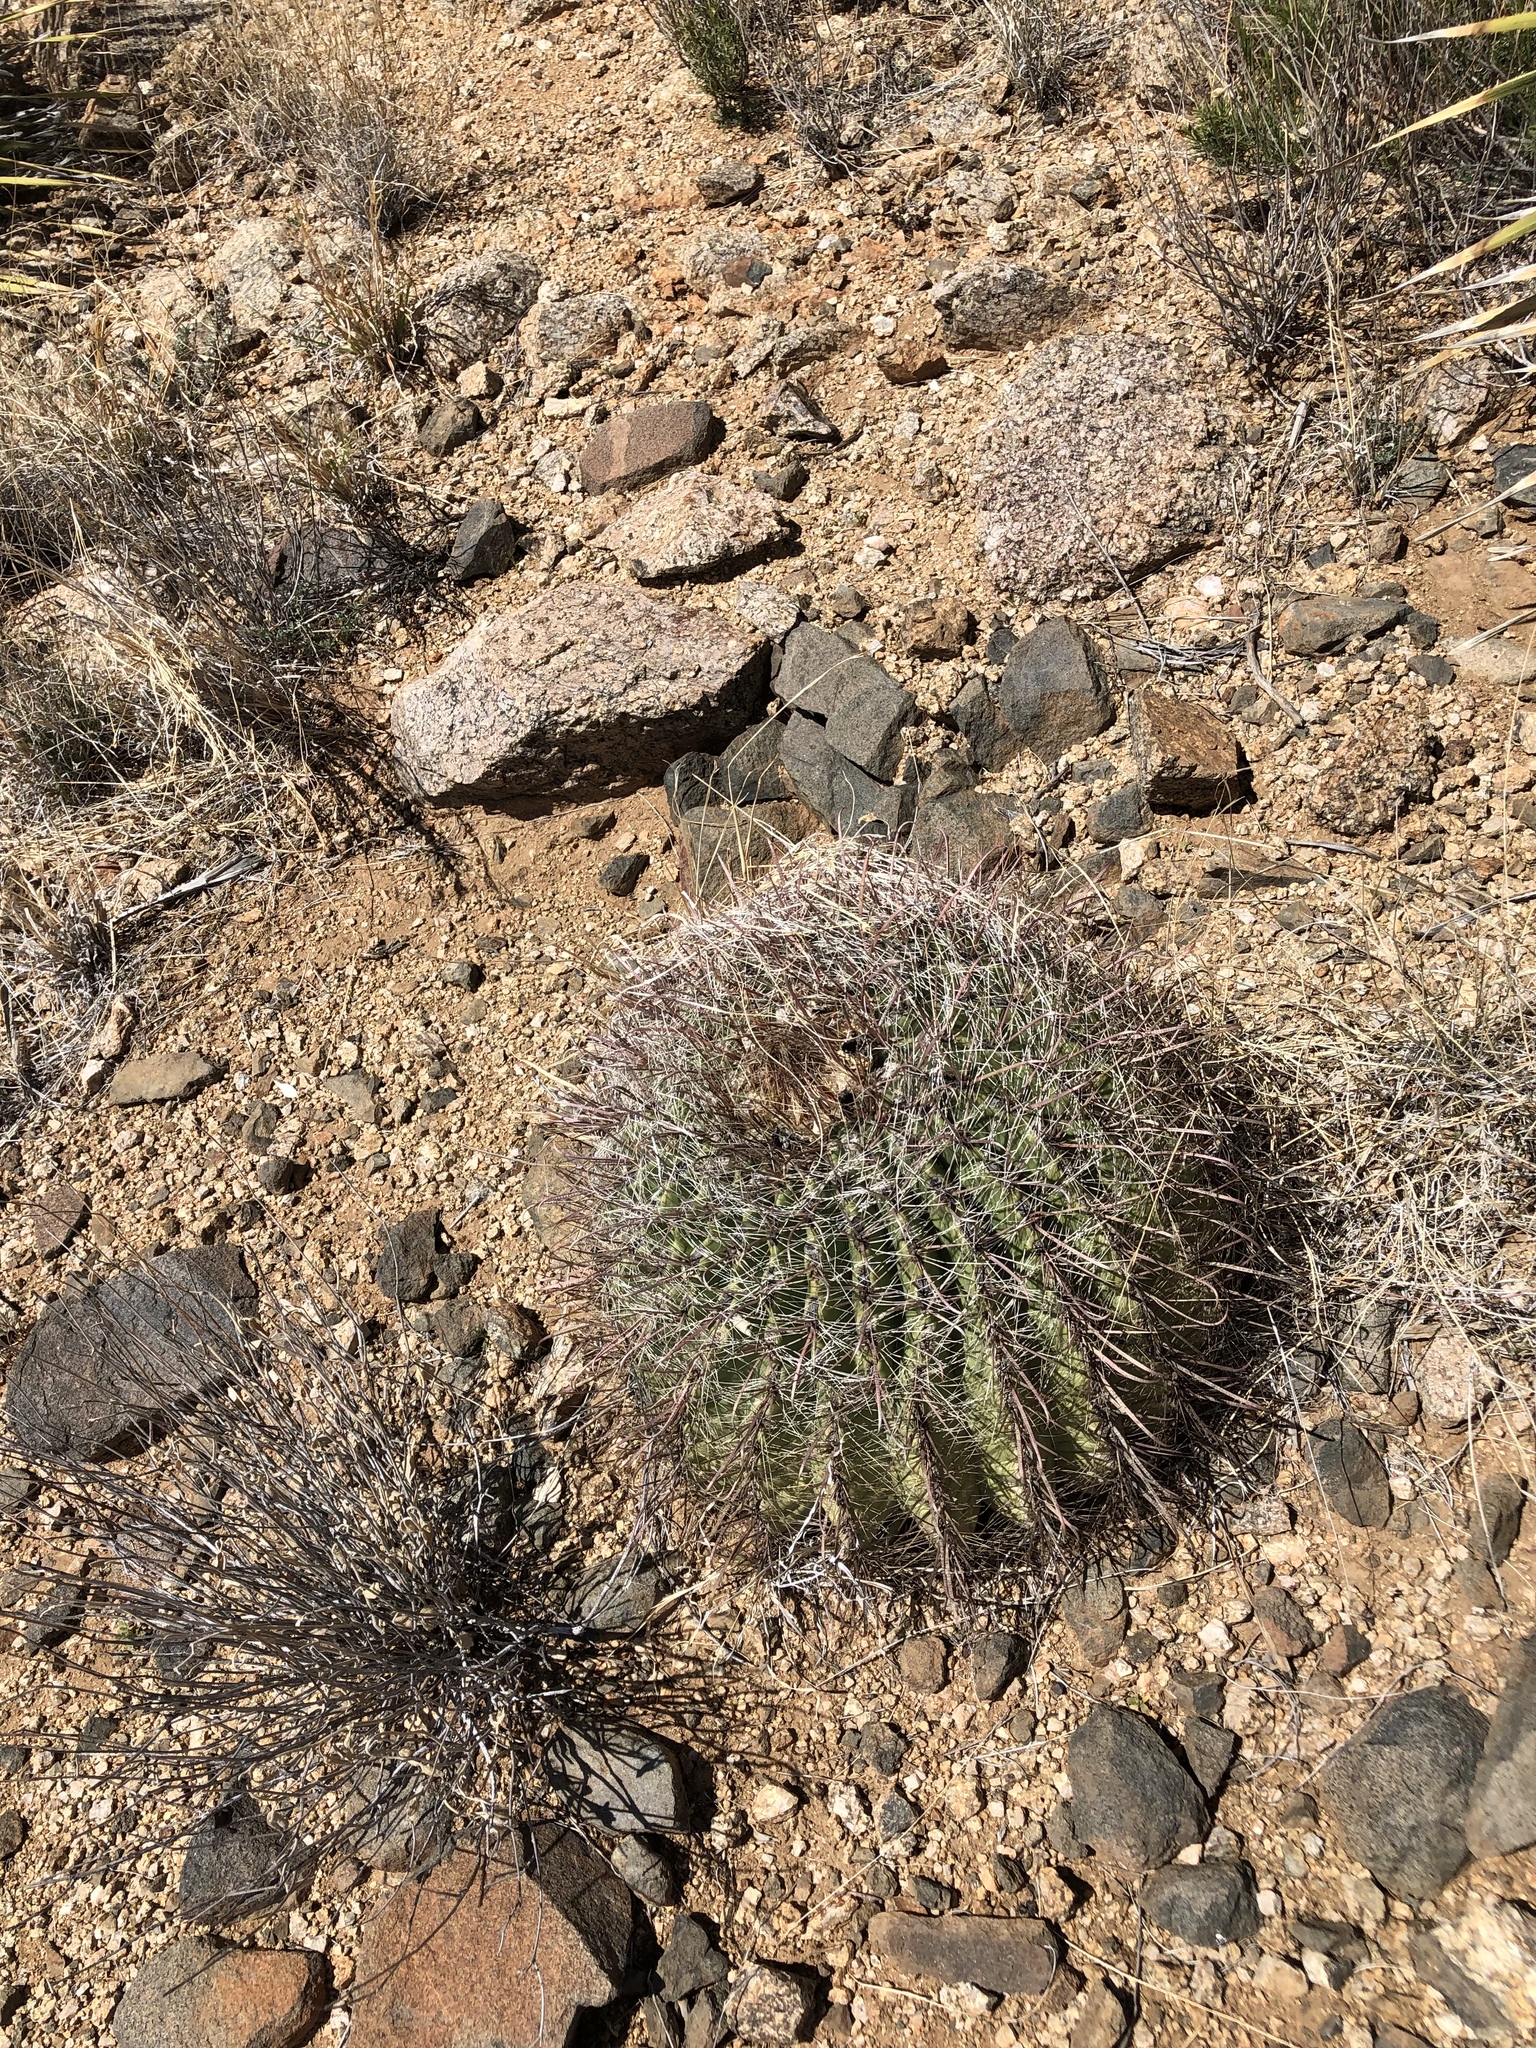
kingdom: Plantae
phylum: Tracheophyta
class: Magnoliopsida
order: Caryophyllales
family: Cactaceae
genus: Ferocactus
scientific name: Ferocactus wislizeni
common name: Candy barrel cactus
